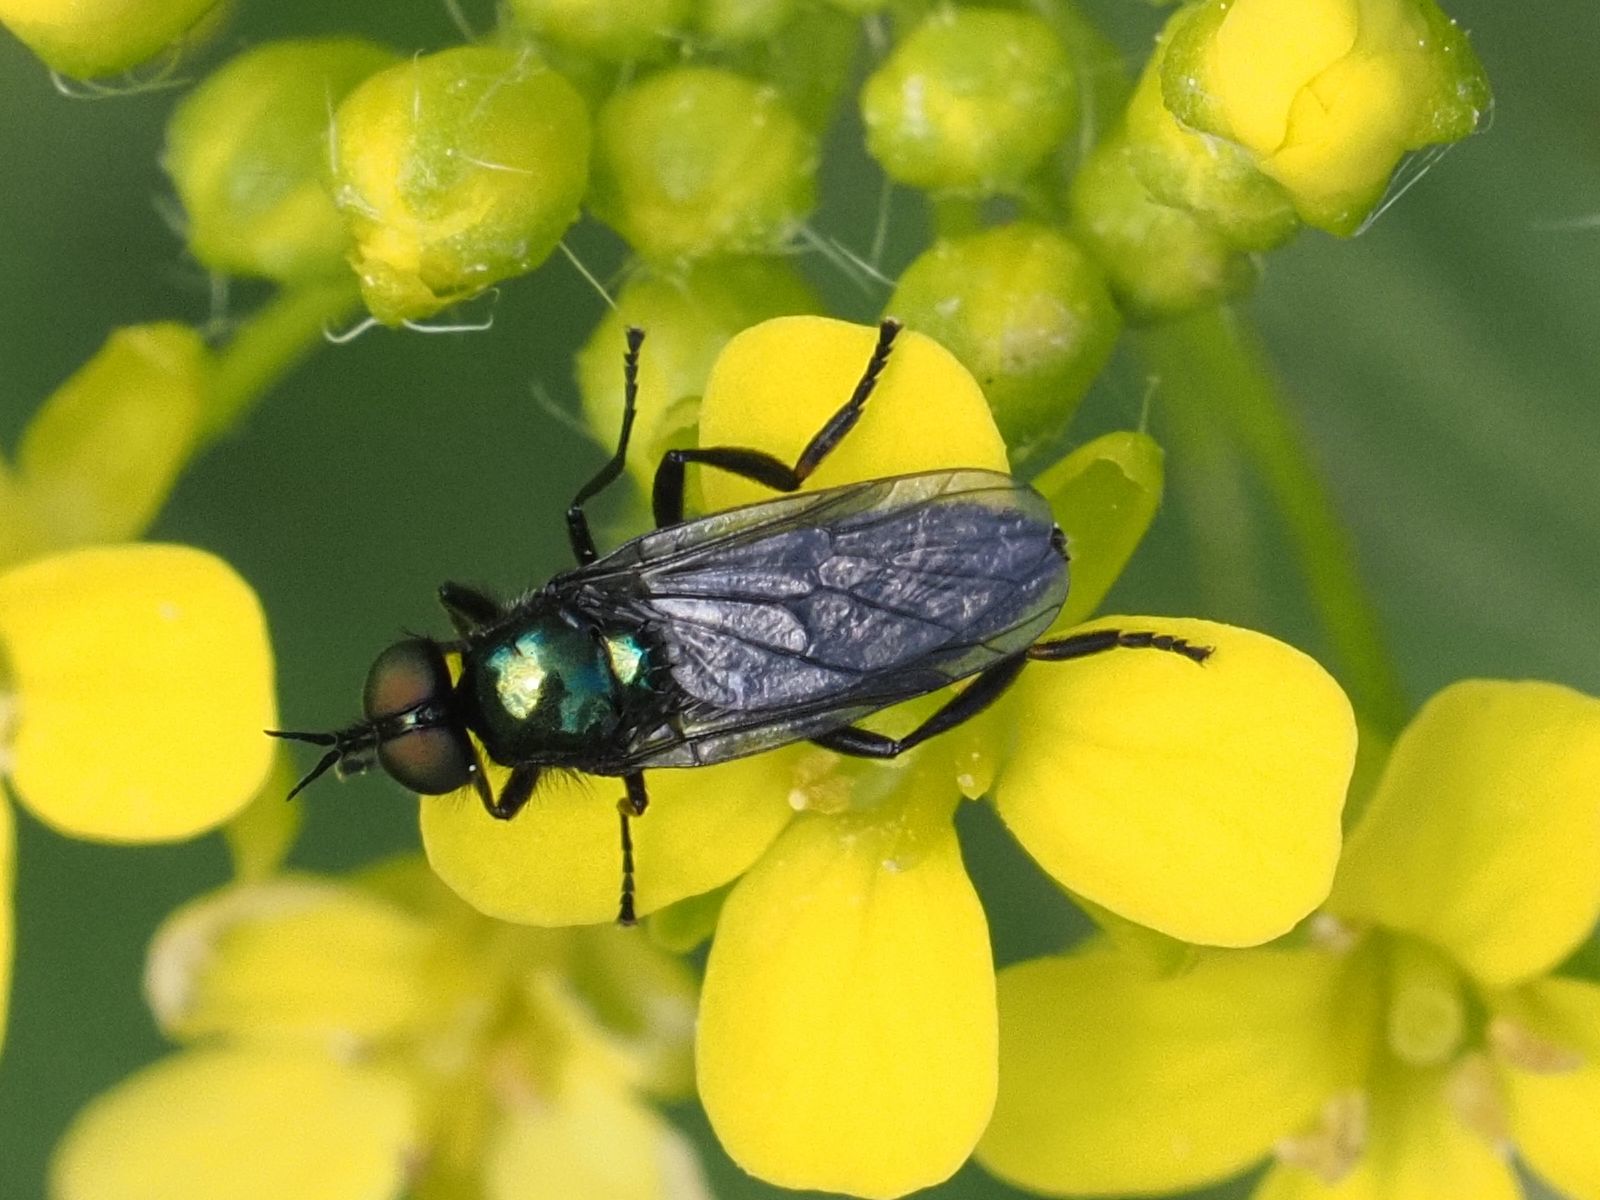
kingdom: Animalia
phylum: Arthropoda
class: Insecta
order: Diptera
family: Stratiomyidae
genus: Actina
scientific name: Actina chalybea
